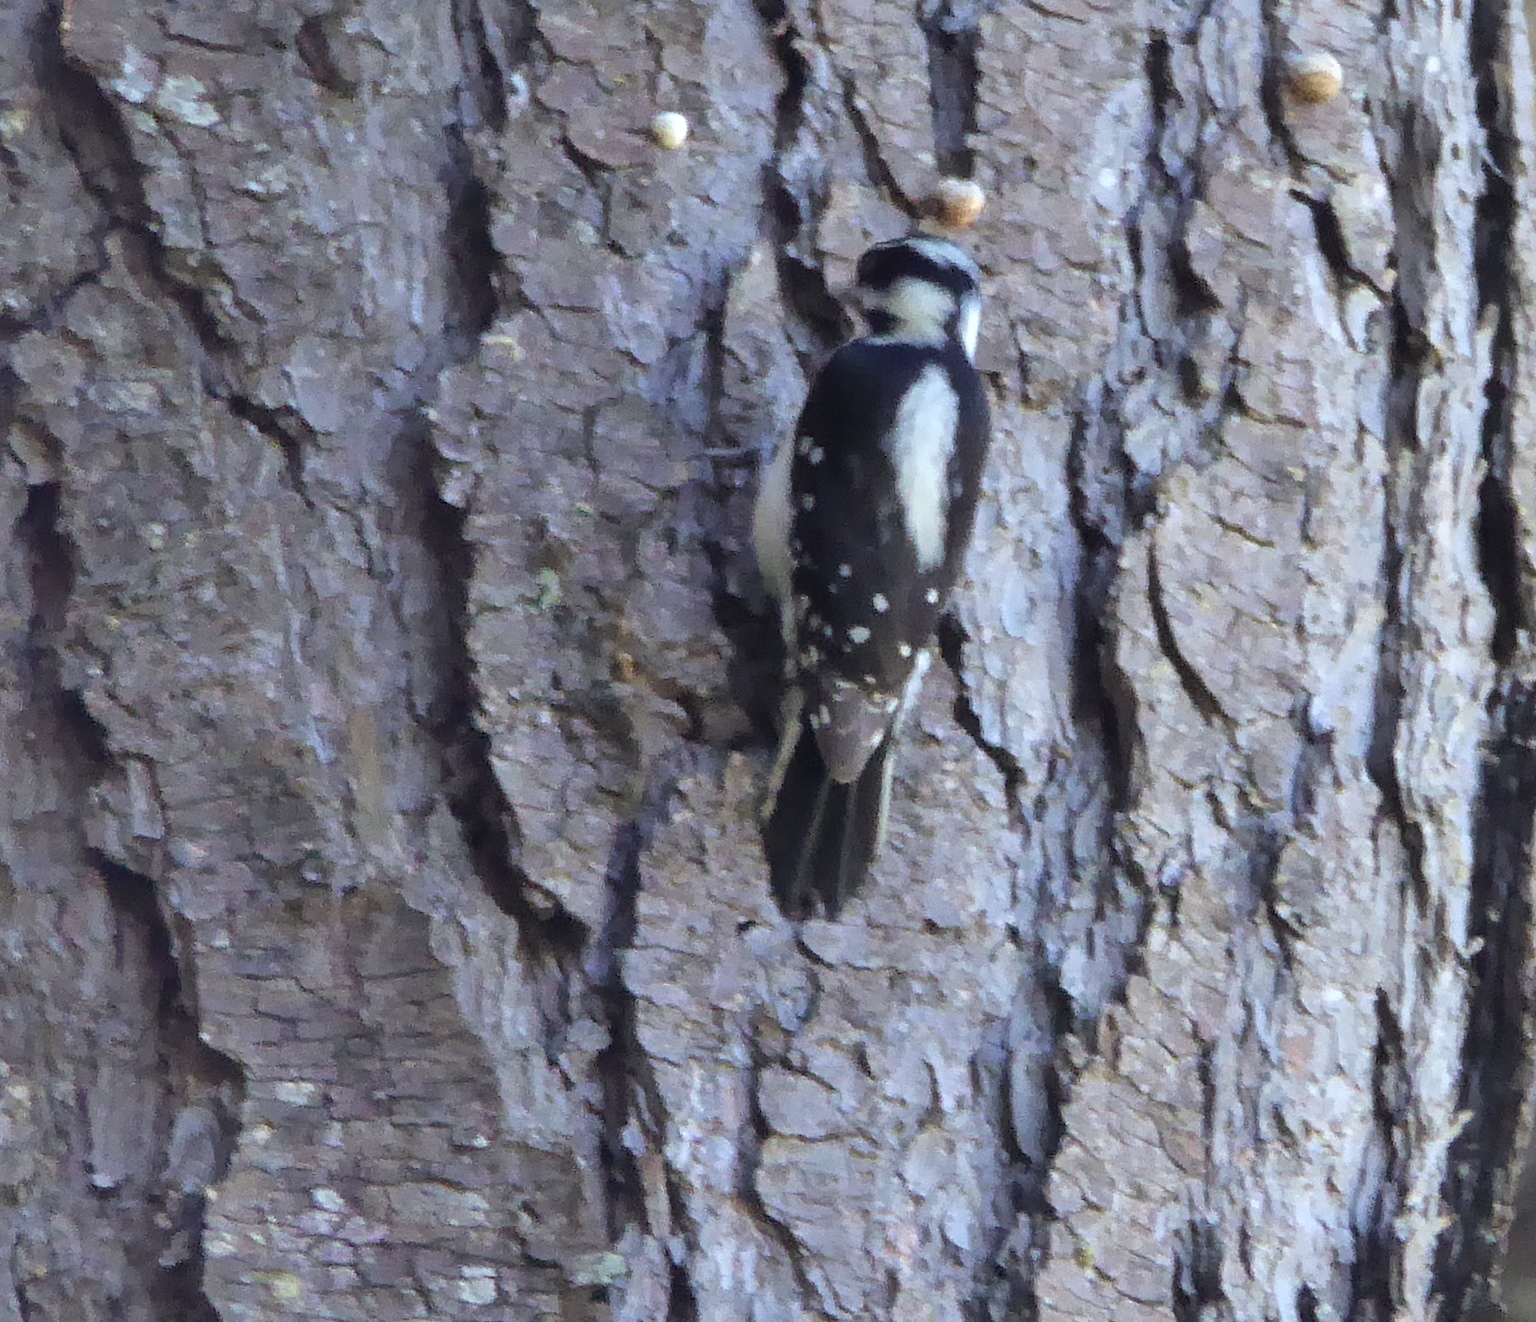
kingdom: Animalia
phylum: Chordata
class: Aves
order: Piciformes
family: Picidae
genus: Dryobates
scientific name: Dryobates pubescens
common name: Downy woodpecker
